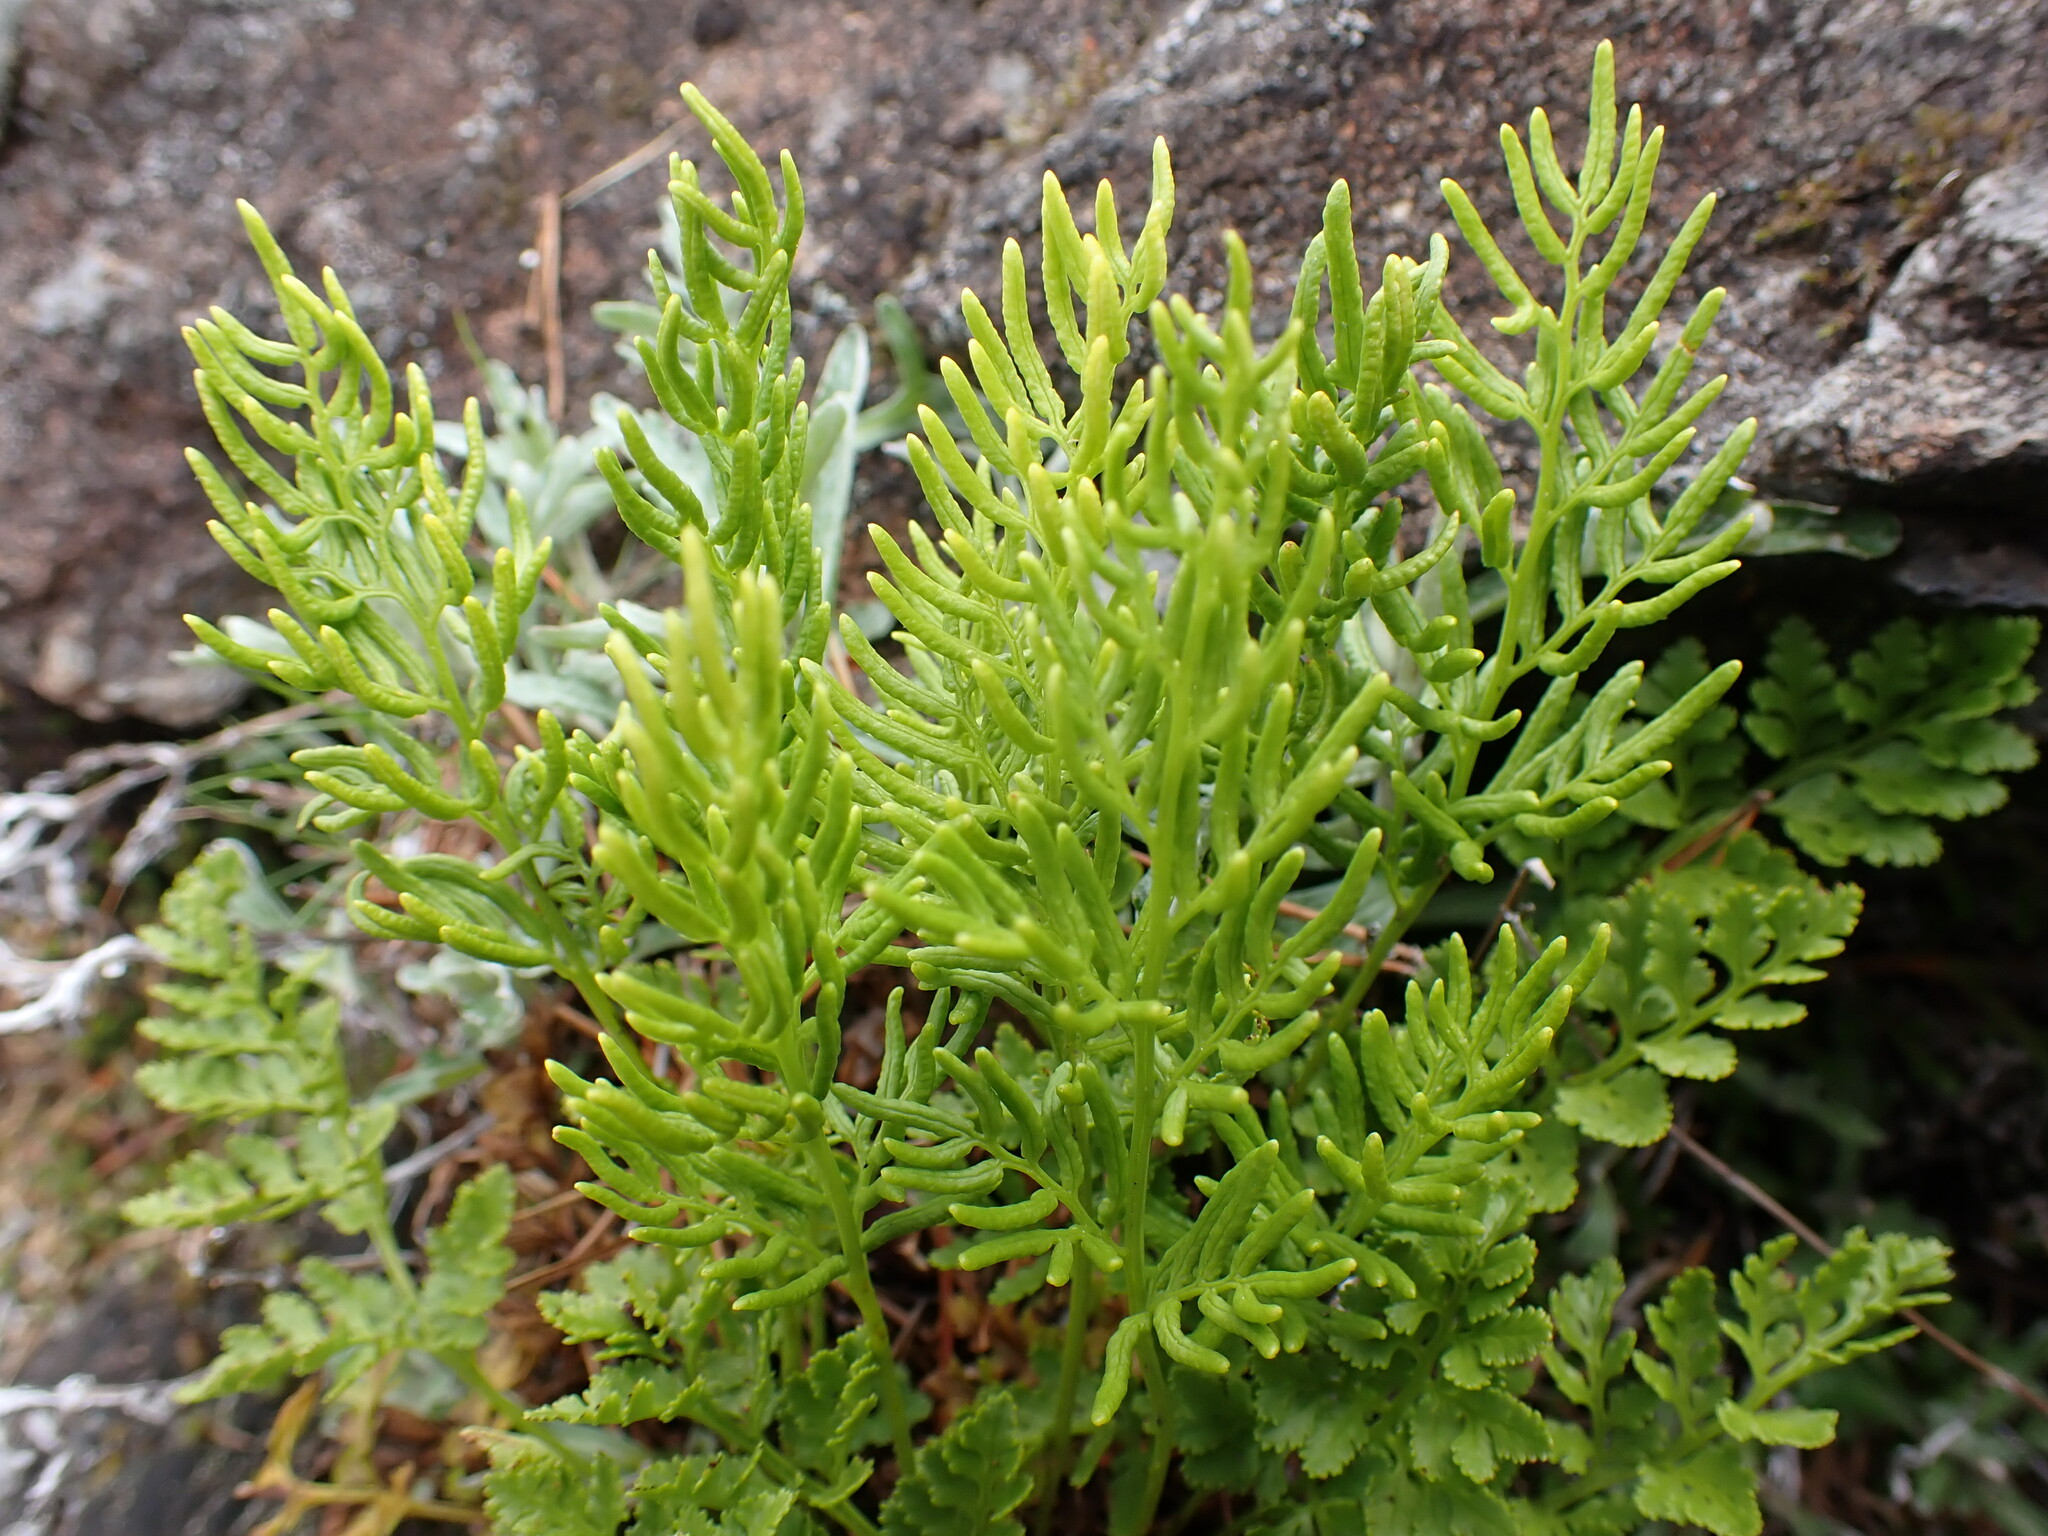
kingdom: Plantae
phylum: Tracheophyta
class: Polypodiopsida
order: Polypodiales
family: Pteridaceae
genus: Cryptogramma
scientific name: Cryptogramma acrostichoides
